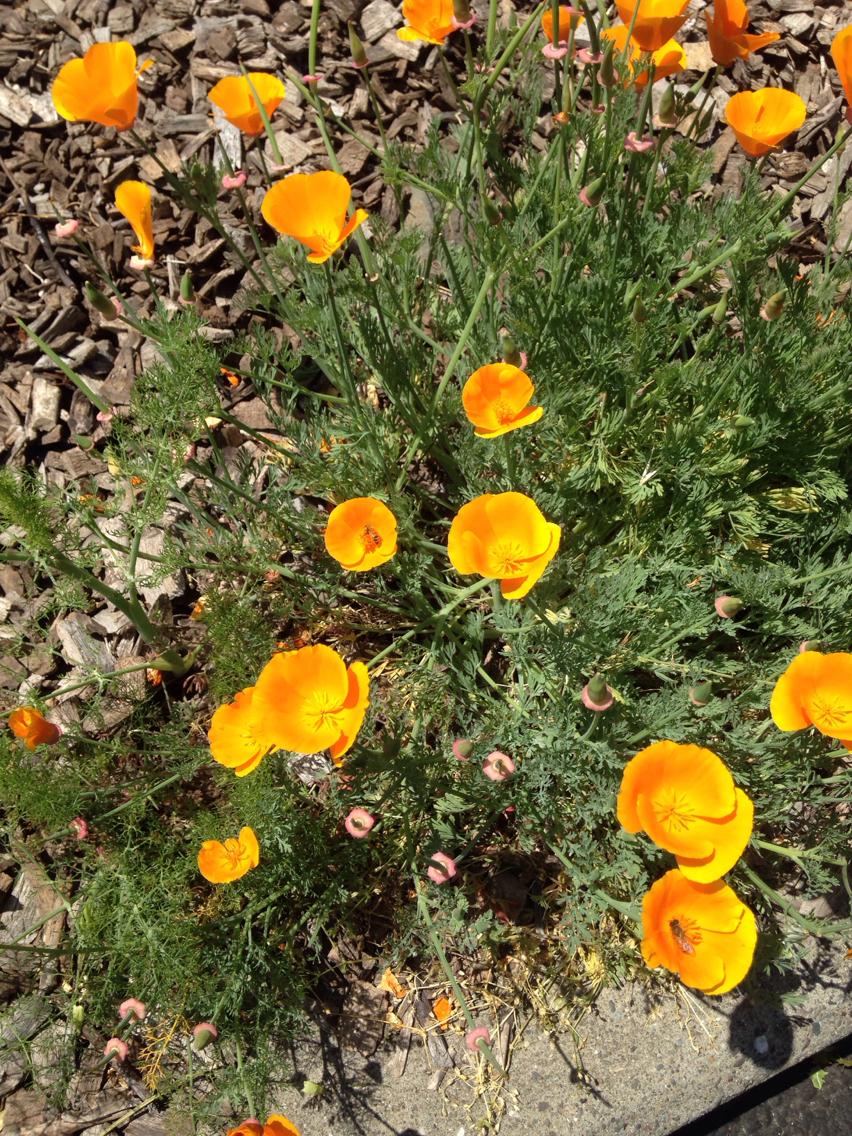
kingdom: Plantae
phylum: Tracheophyta
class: Magnoliopsida
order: Ranunculales
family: Papaveraceae
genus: Eschscholzia
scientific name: Eschscholzia californica
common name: California poppy
